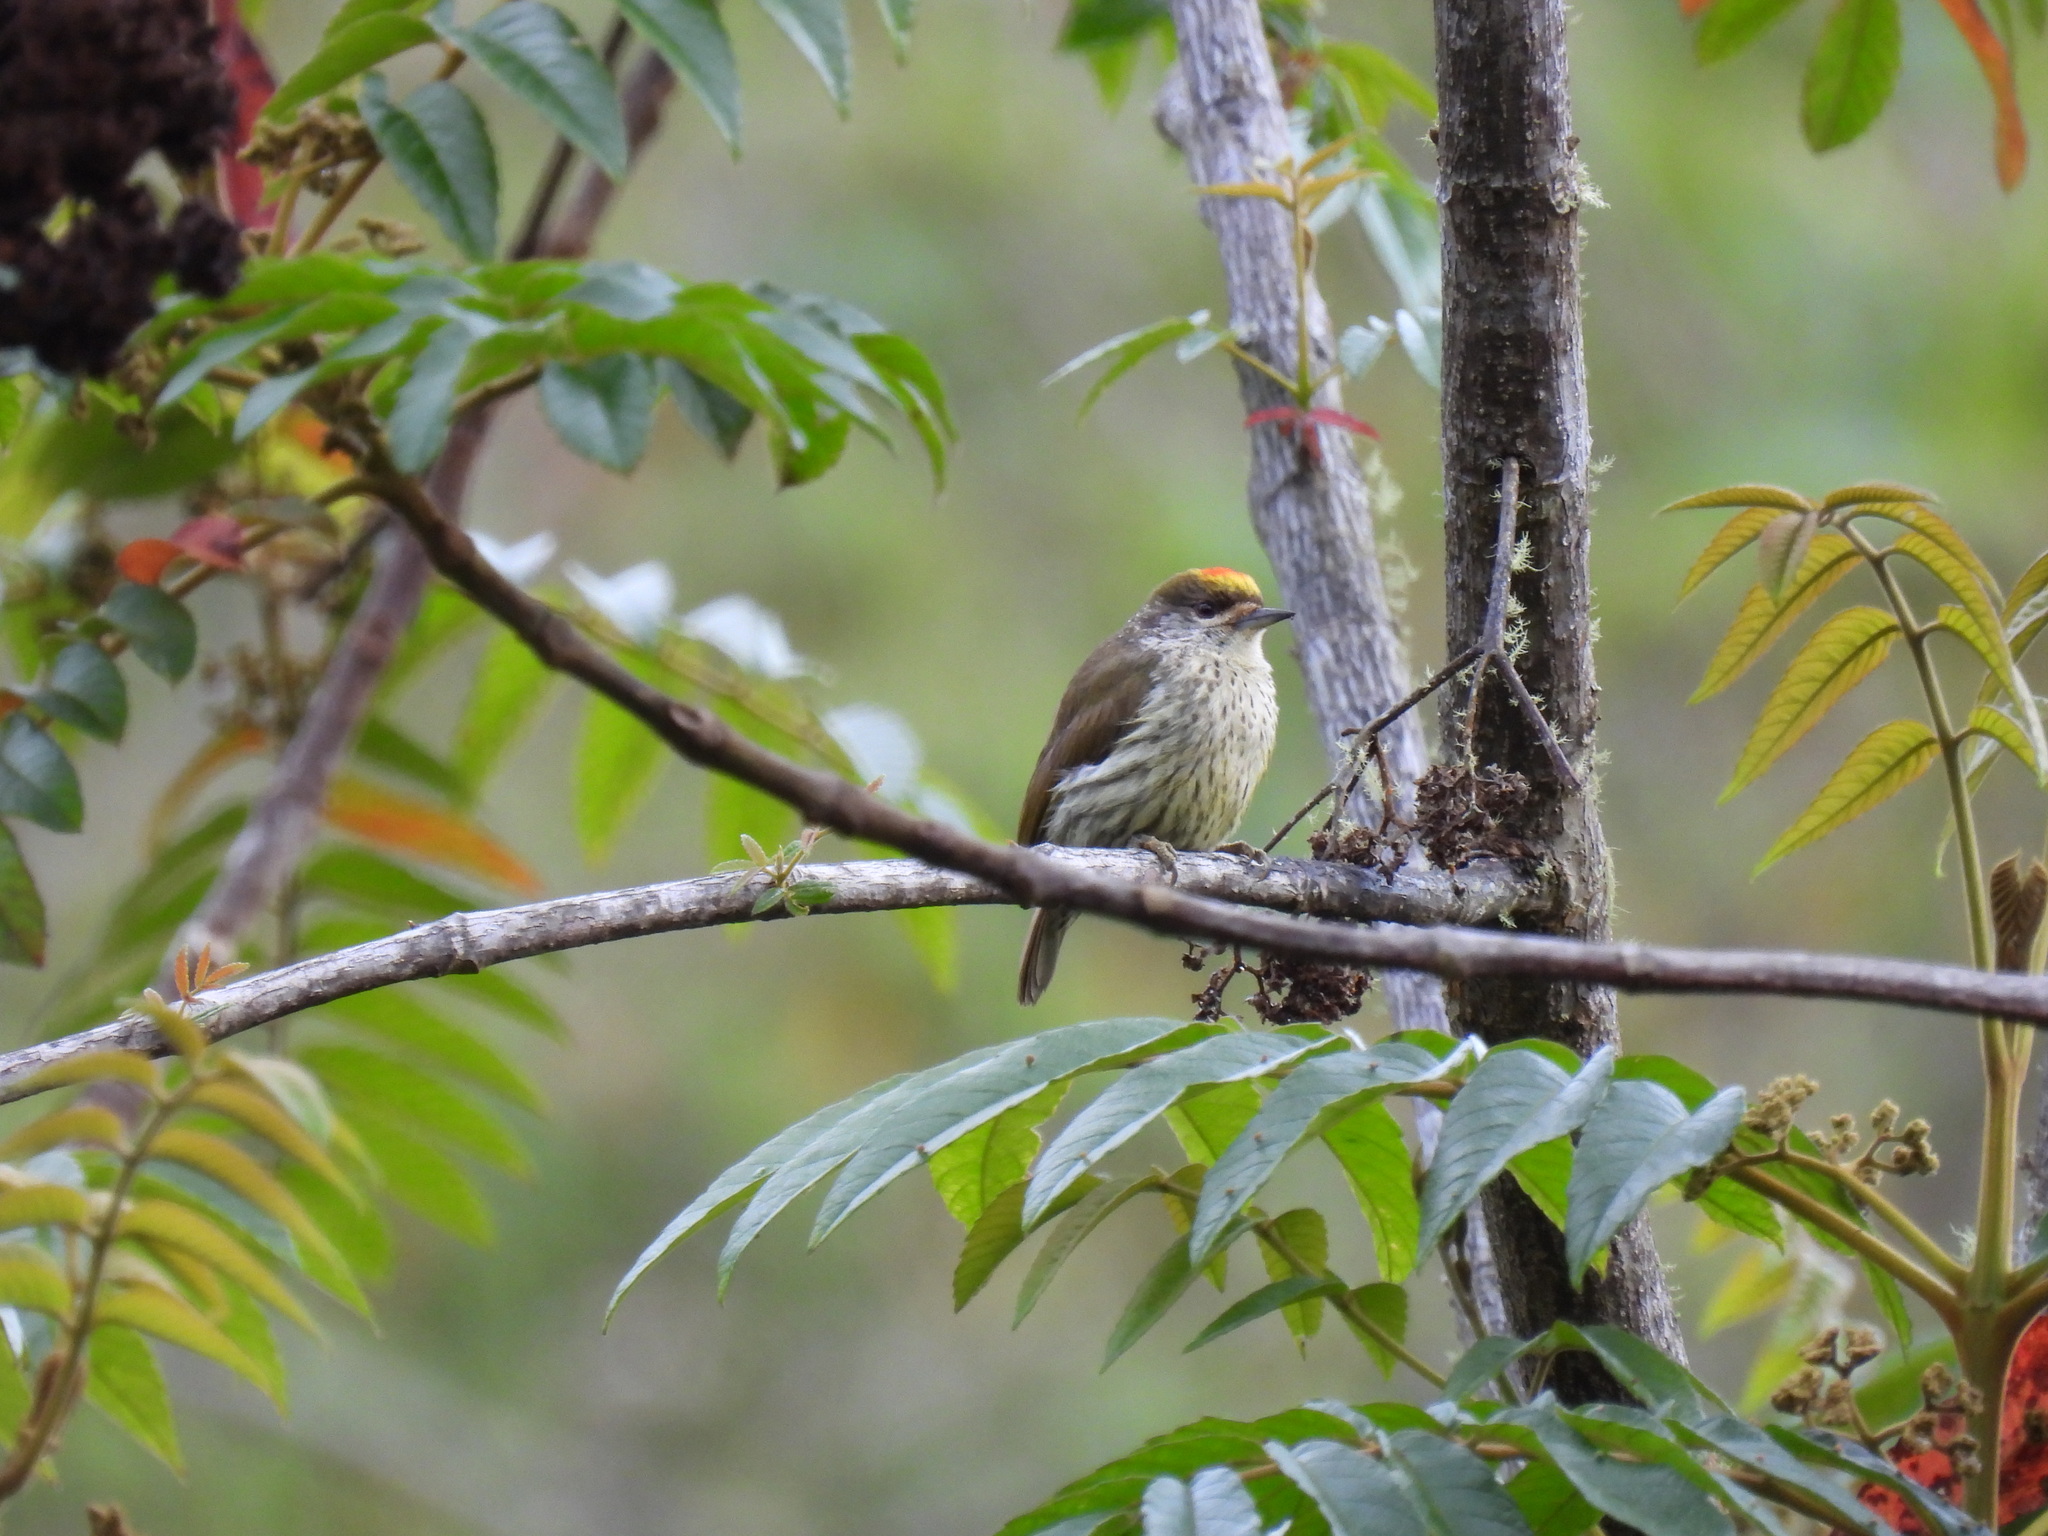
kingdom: Animalia
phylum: Chordata
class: Aves
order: Piciformes
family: Picidae
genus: Nesoctites
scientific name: Nesoctites micromegas
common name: Antillean piculet
